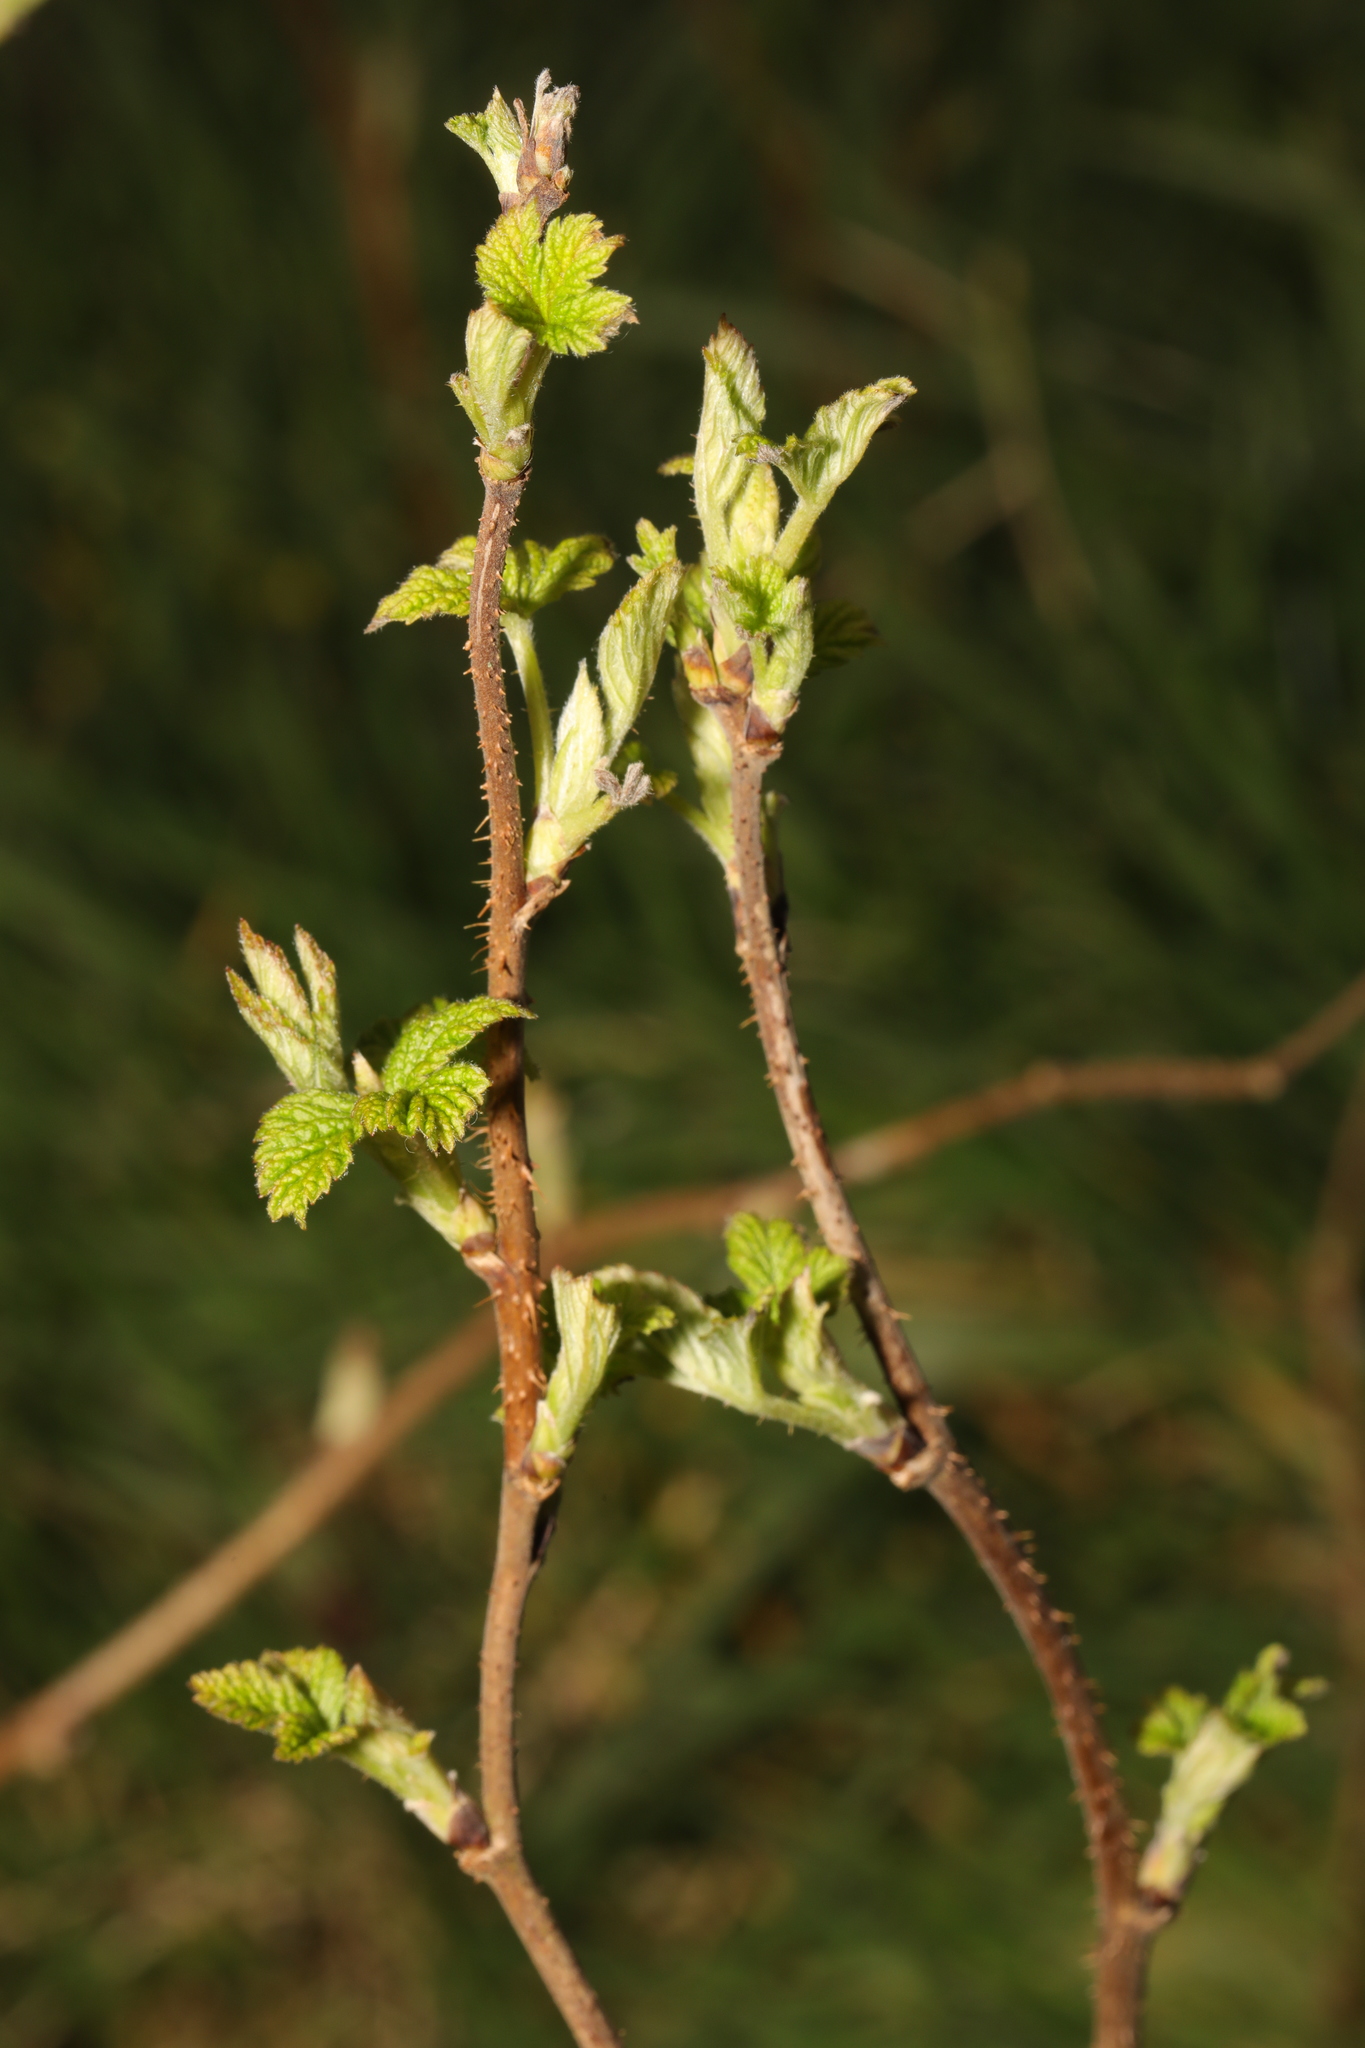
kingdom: Plantae
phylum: Tracheophyta
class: Magnoliopsida
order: Rosales
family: Rosaceae
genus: Rubus
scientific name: Rubus idaeus
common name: Raspberry
